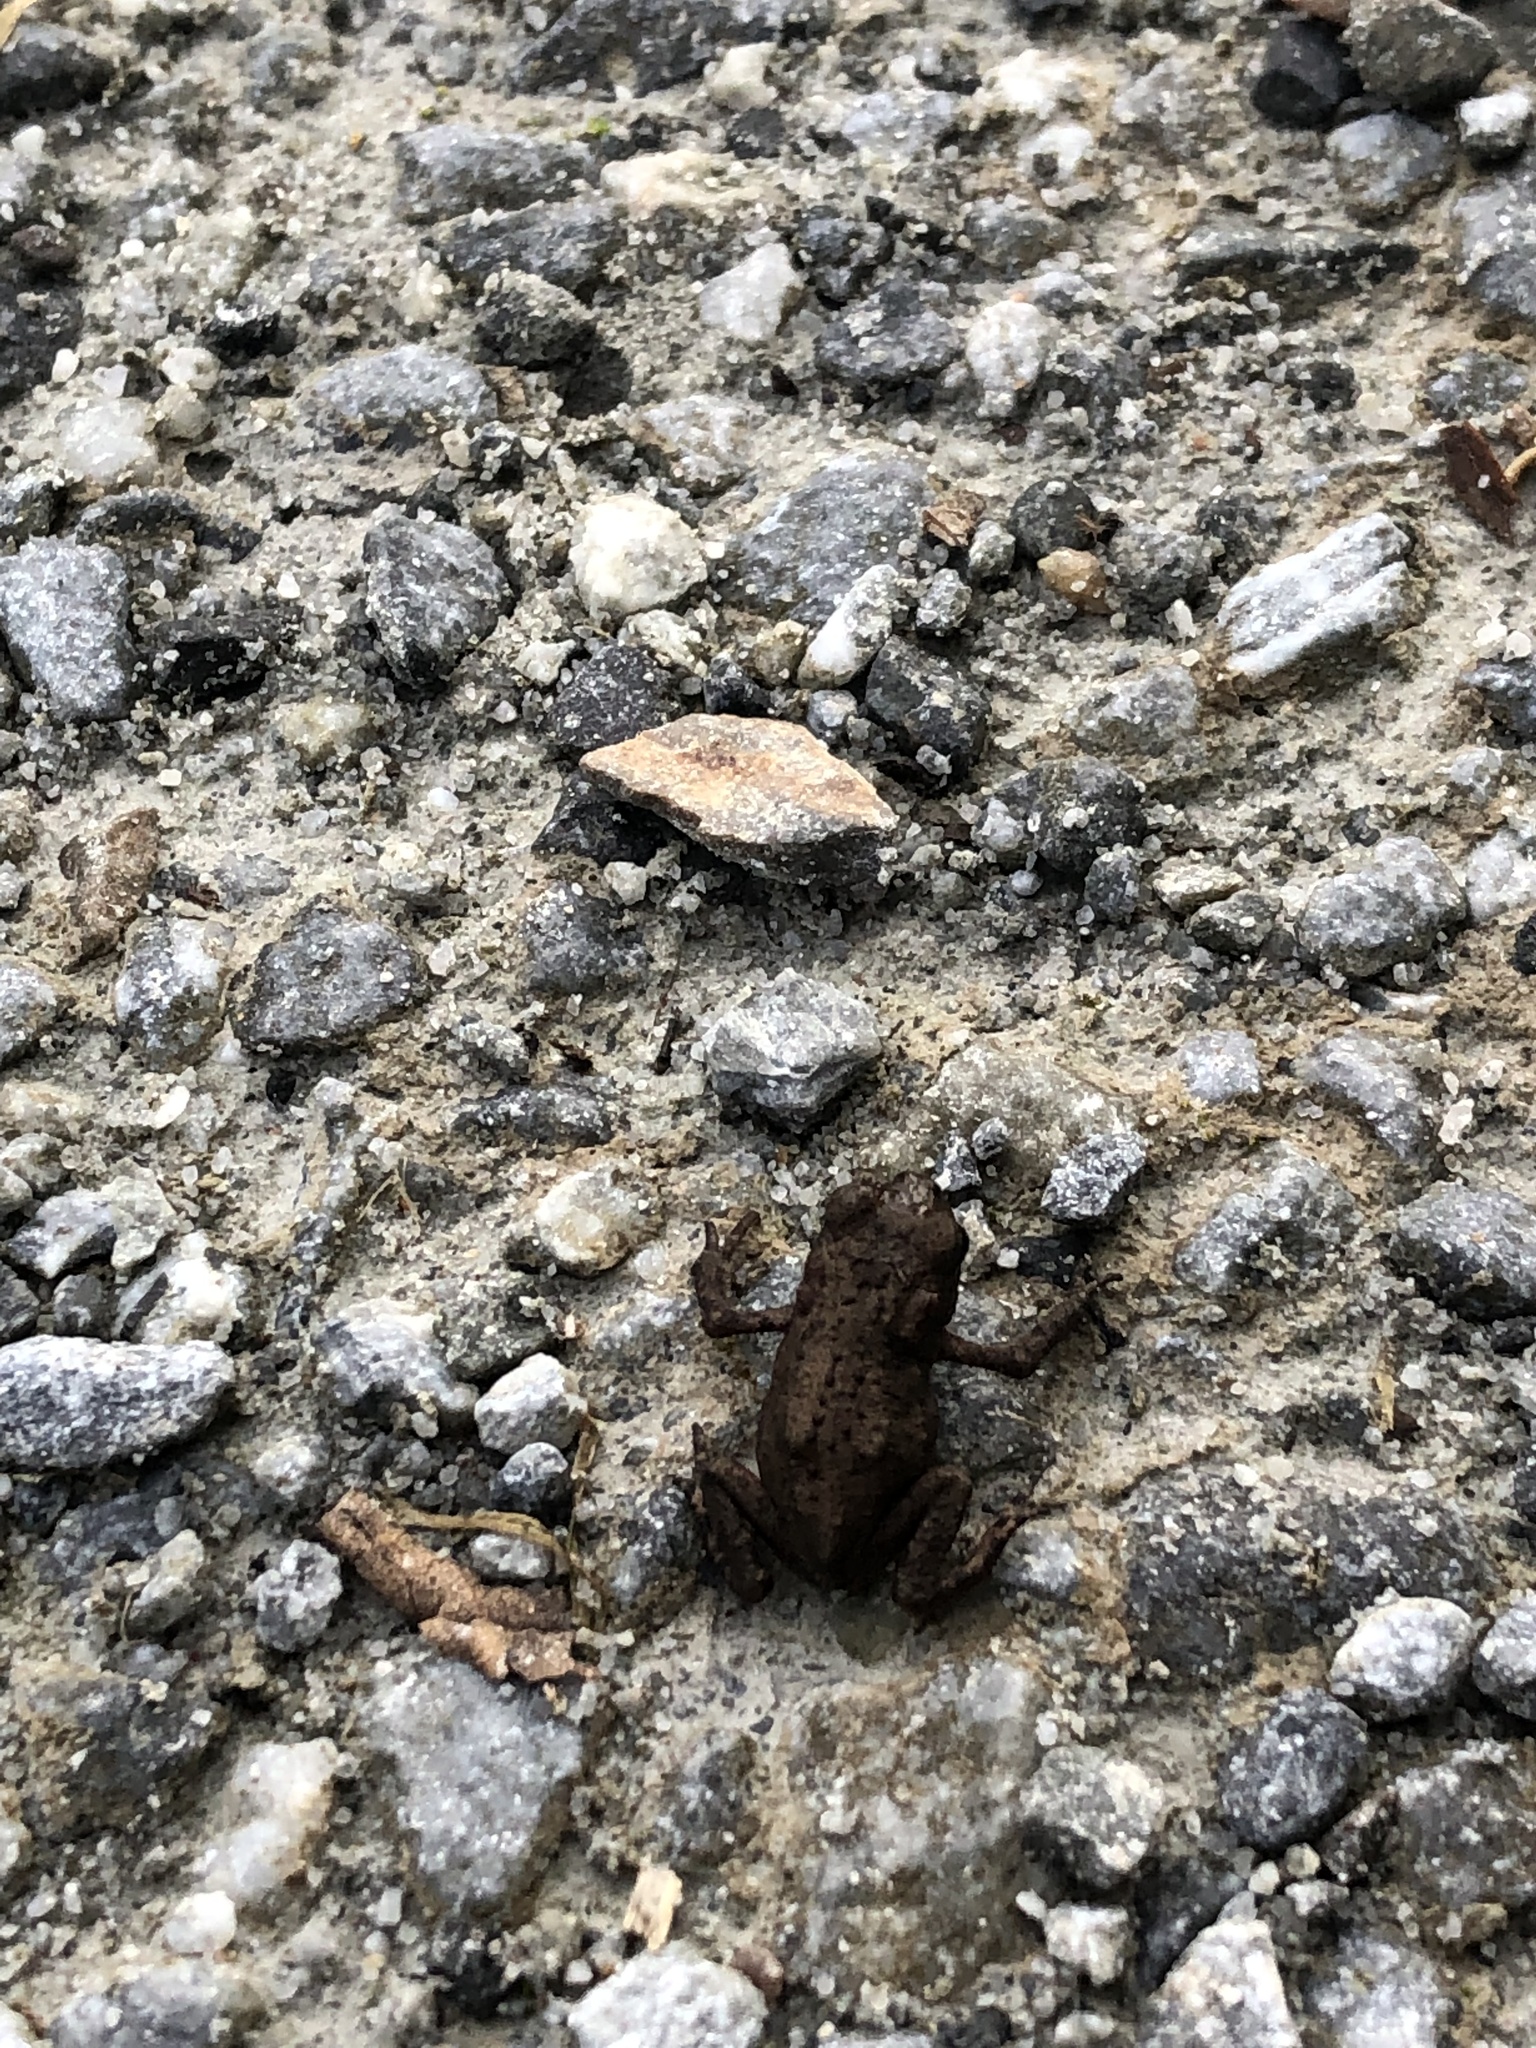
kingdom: Animalia
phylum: Chordata
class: Amphibia
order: Anura
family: Bufonidae
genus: Bufo
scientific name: Bufo bufo
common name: Common toad
